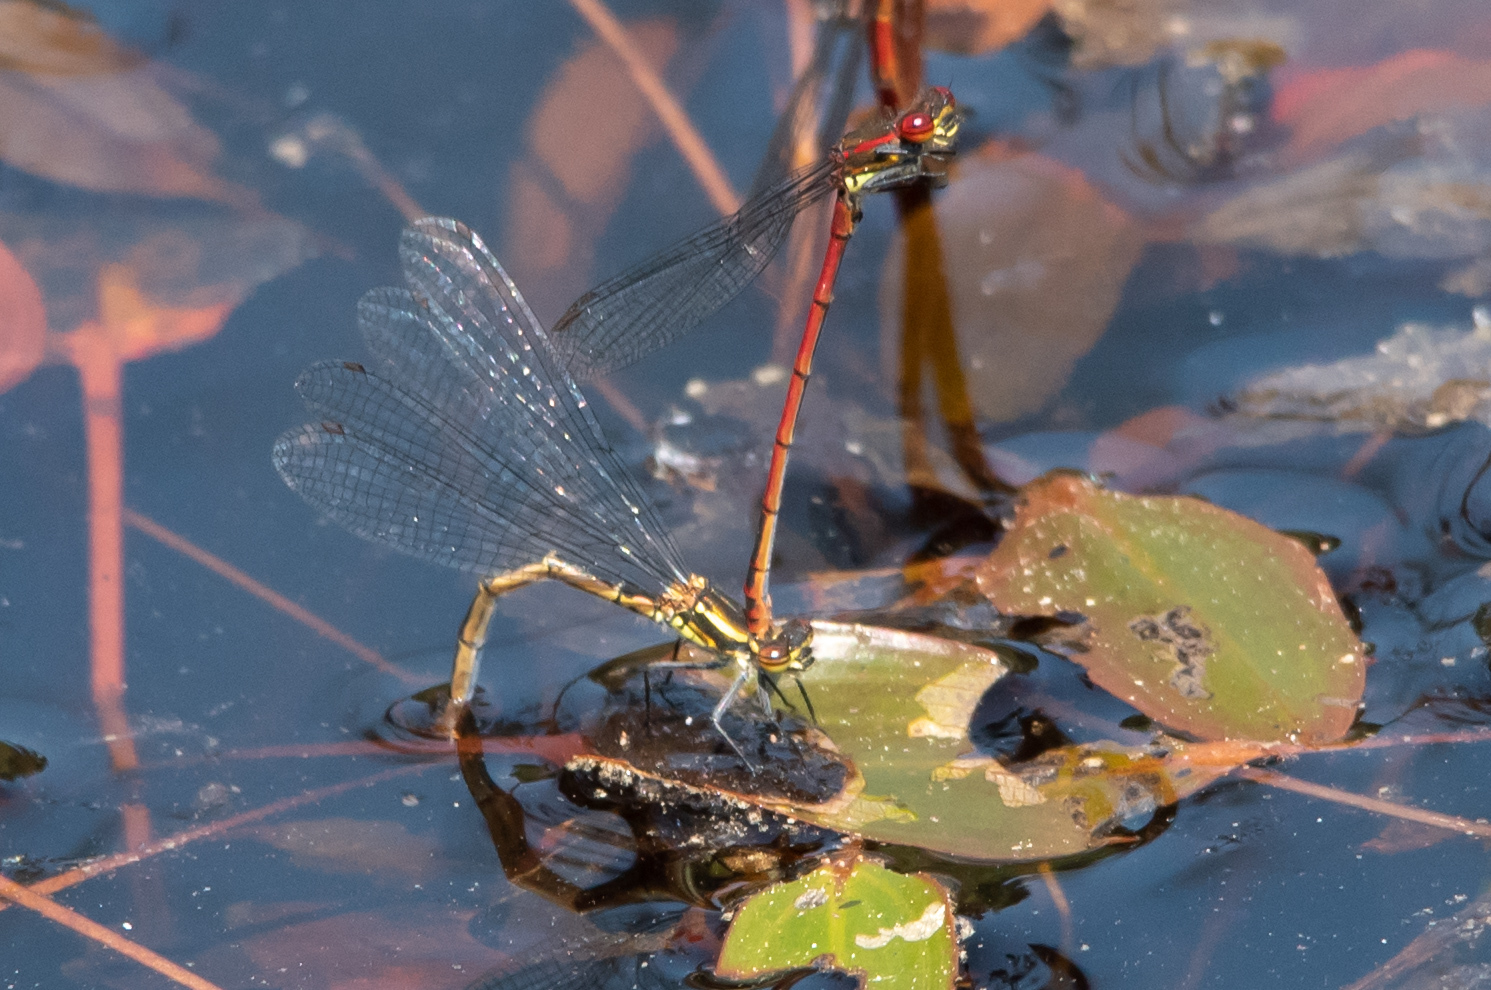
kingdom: Animalia
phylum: Arthropoda
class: Insecta
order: Odonata
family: Coenagrionidae
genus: Pyrrhosoma
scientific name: Pyrrhosoma nymphula
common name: Large red damsel
